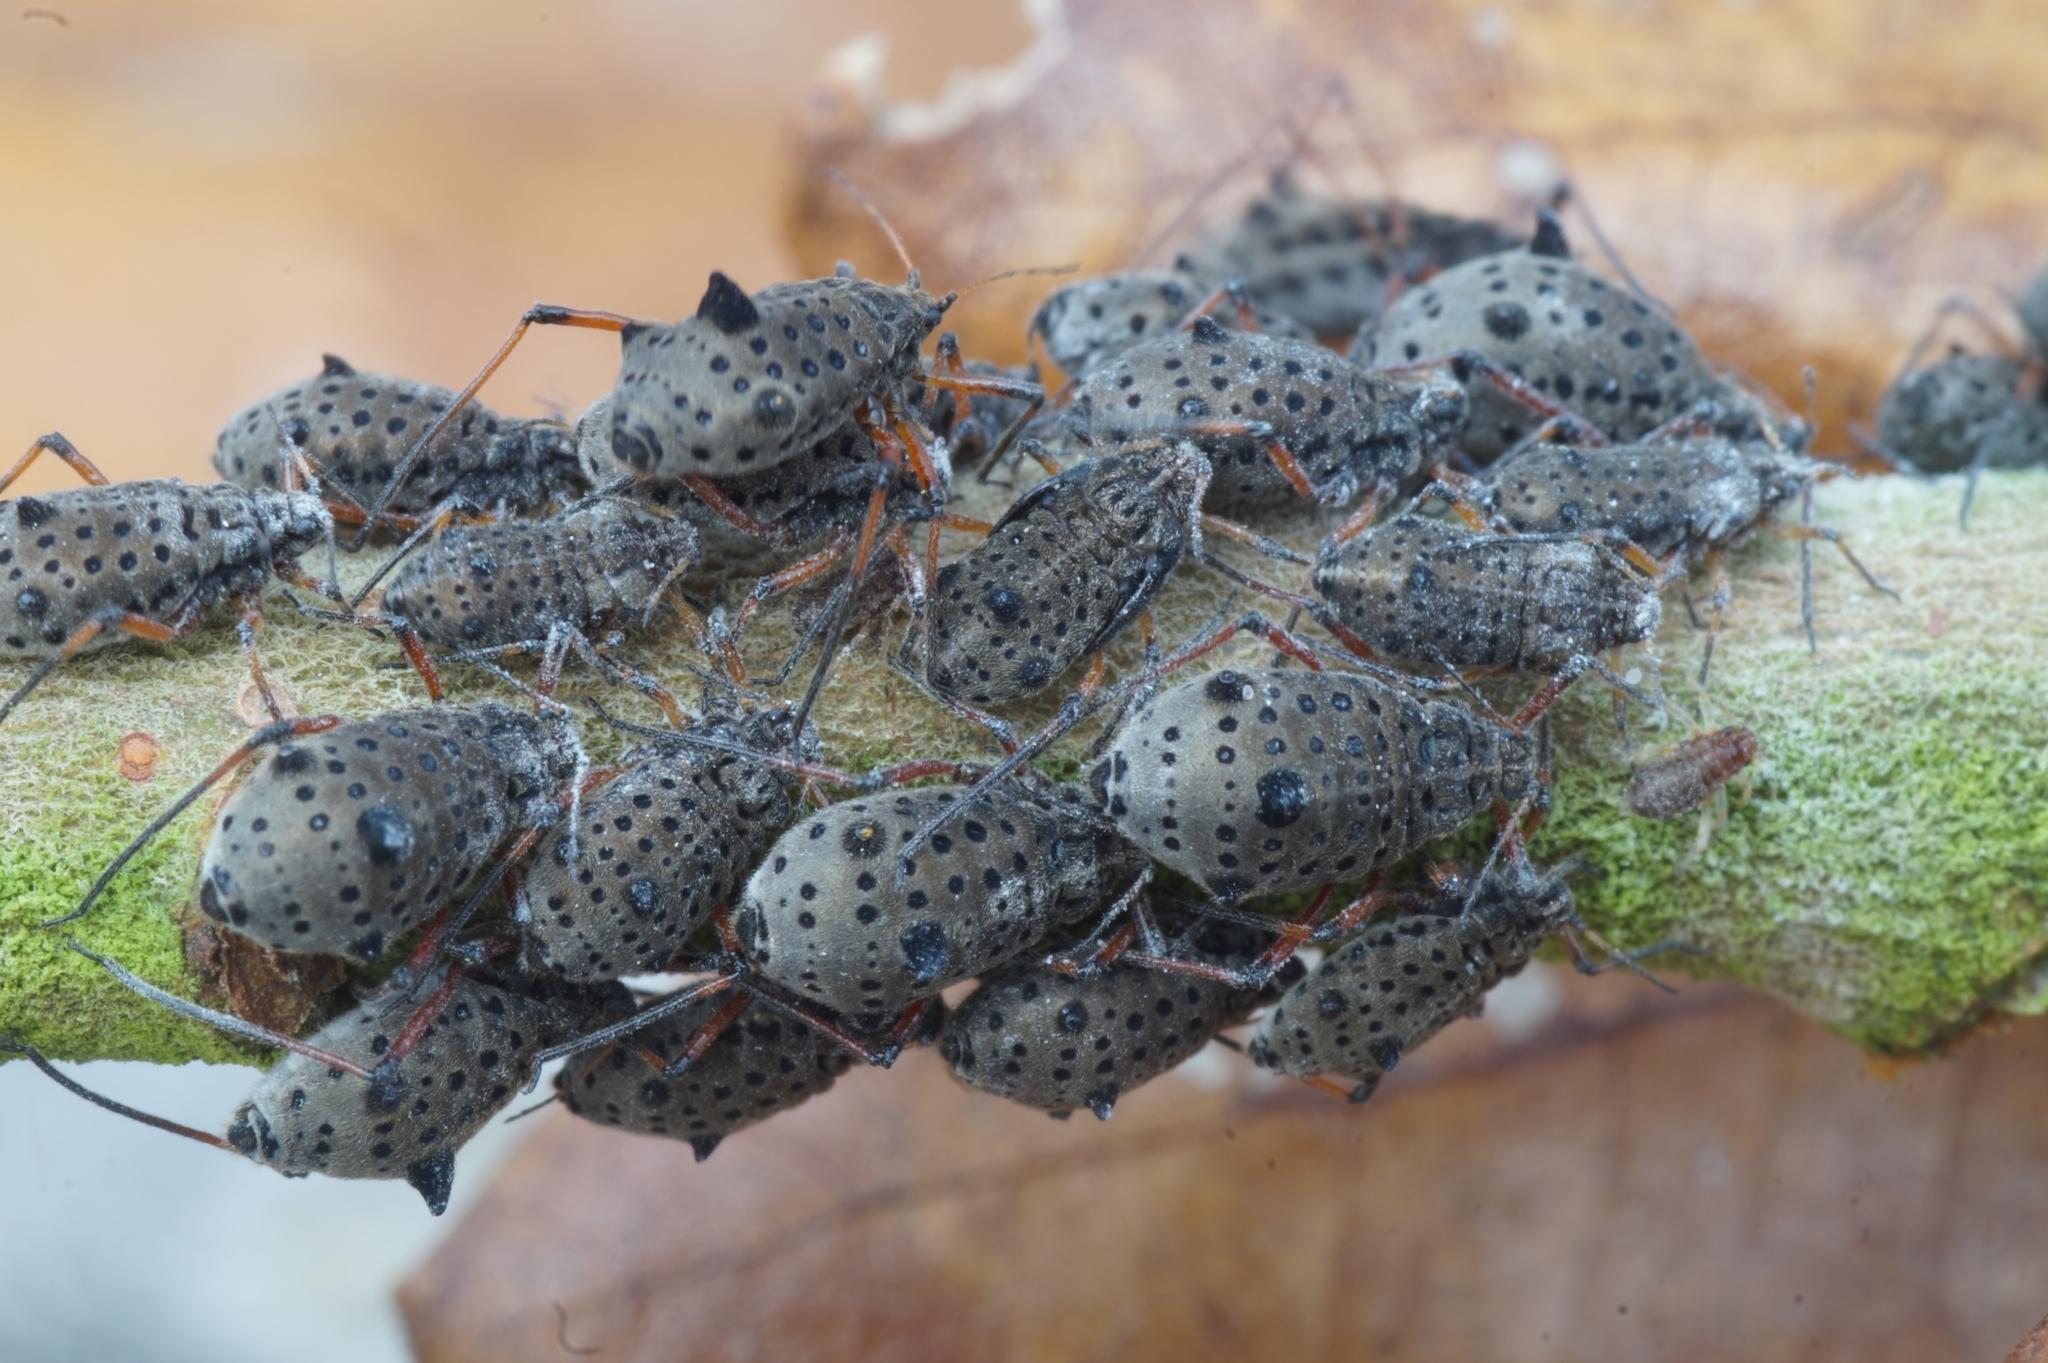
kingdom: Animalia
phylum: Arthropoda
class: Insecta
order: Hemiptera
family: Aphididae
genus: Tuberolachnus
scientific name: Tuberolachnus salignus
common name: Giant willow aphid
